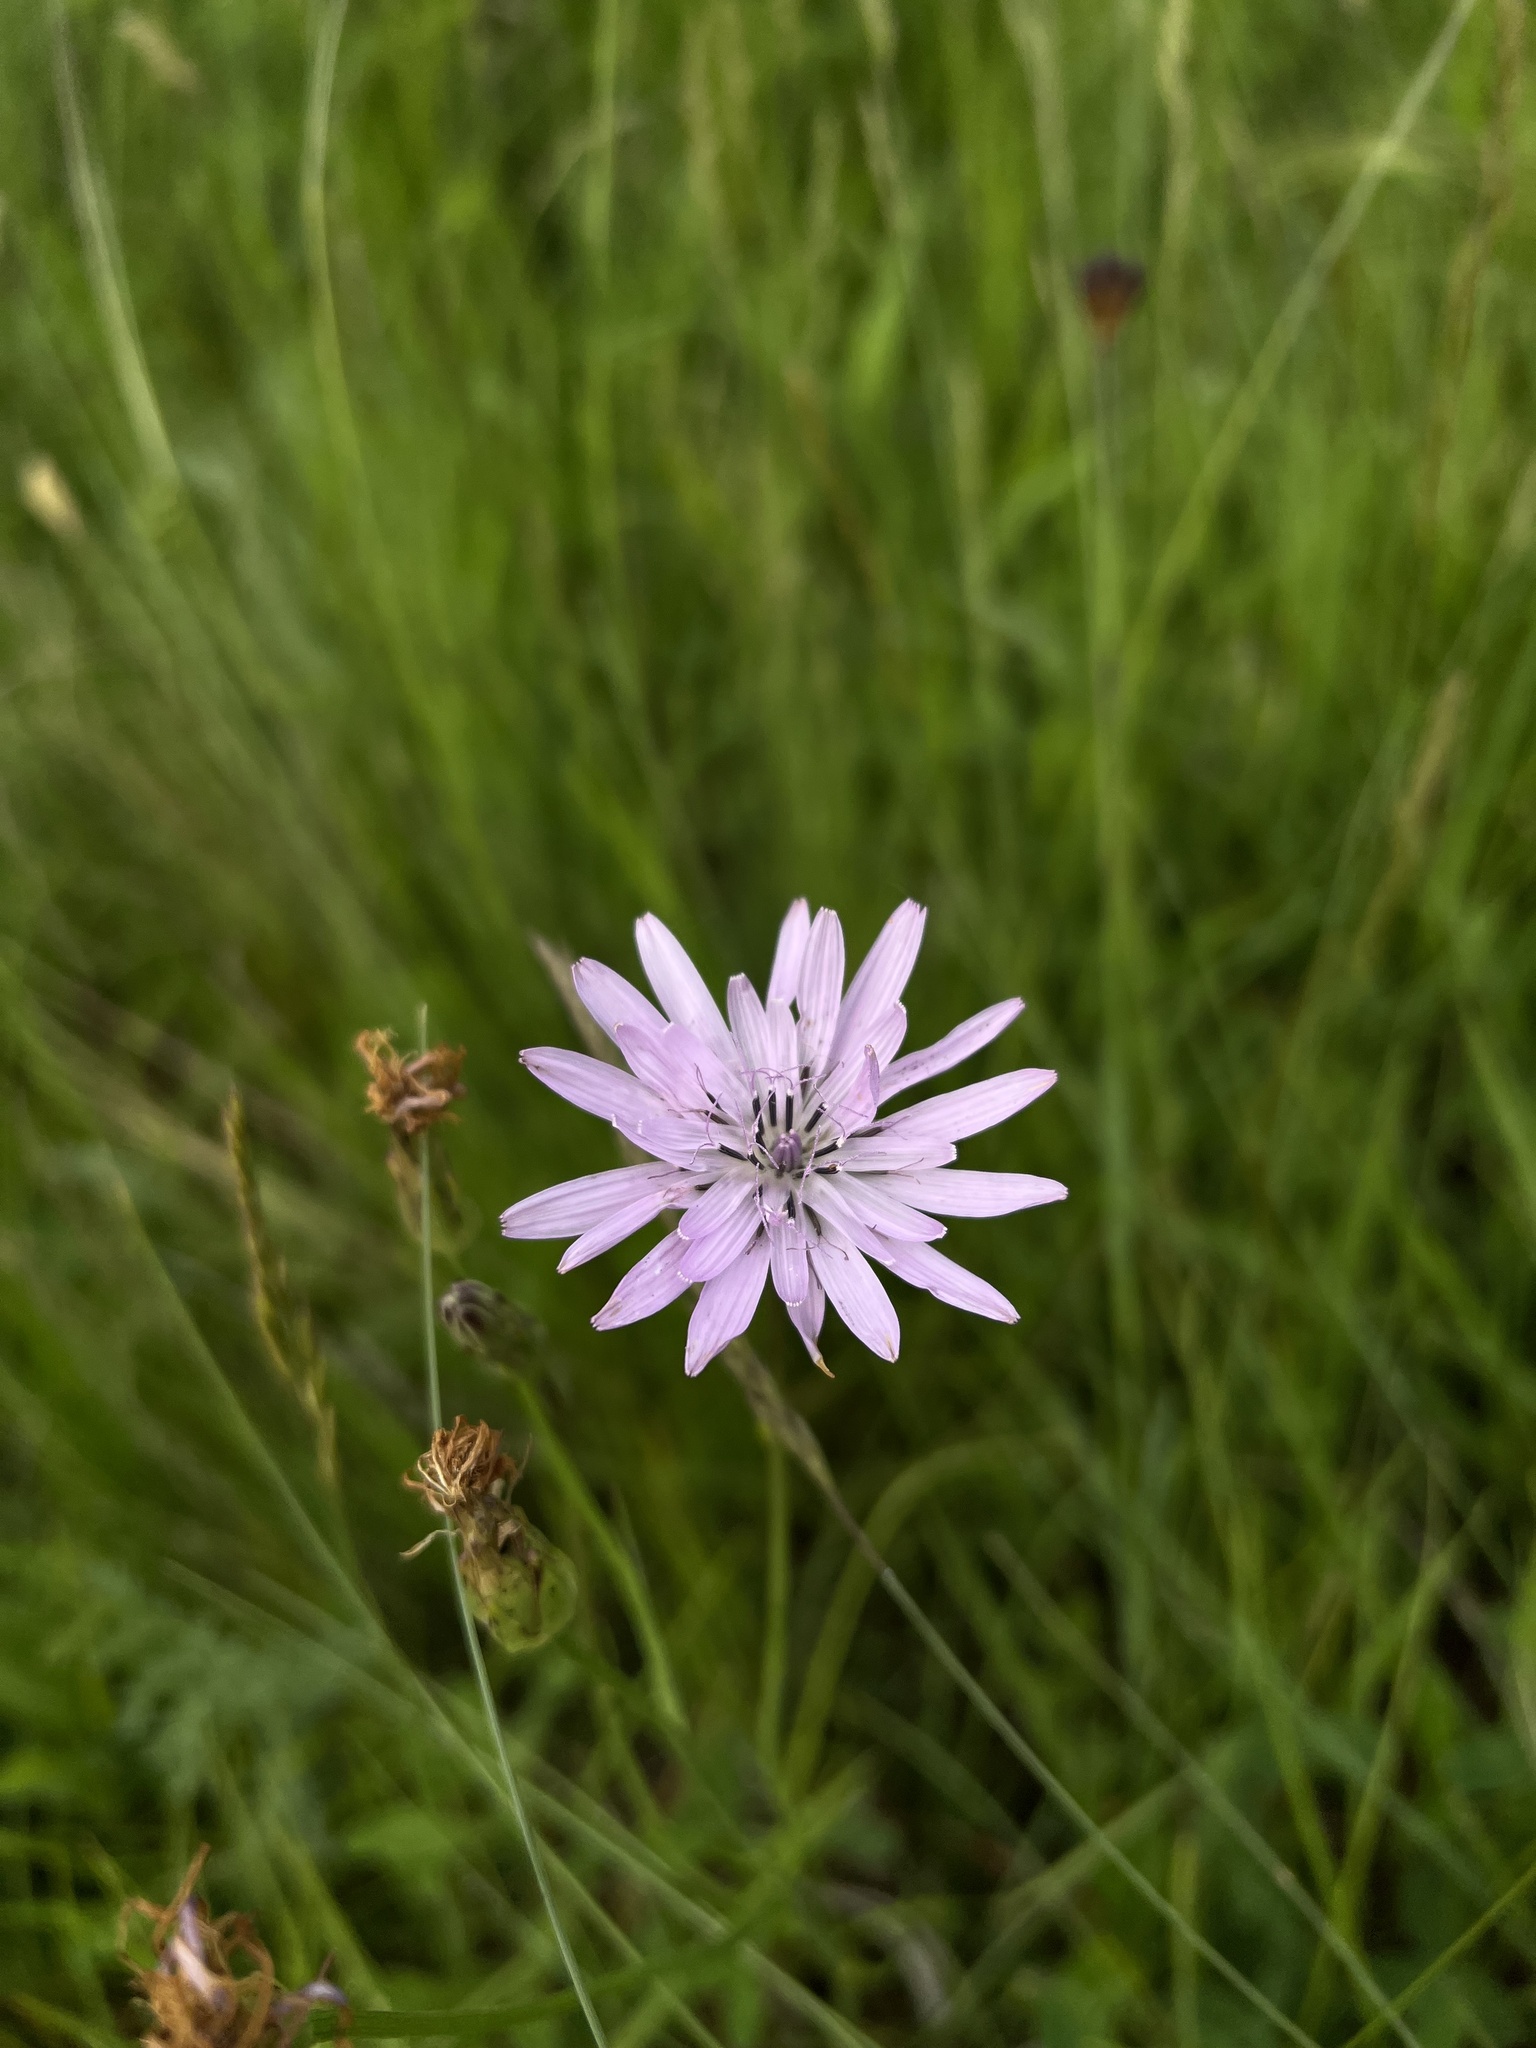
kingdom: Plantae
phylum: Tracheophyta
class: Magnoliopsida
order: Asterales
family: Asteraceae
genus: Scorzonera
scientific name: Scorzonera purpurea
